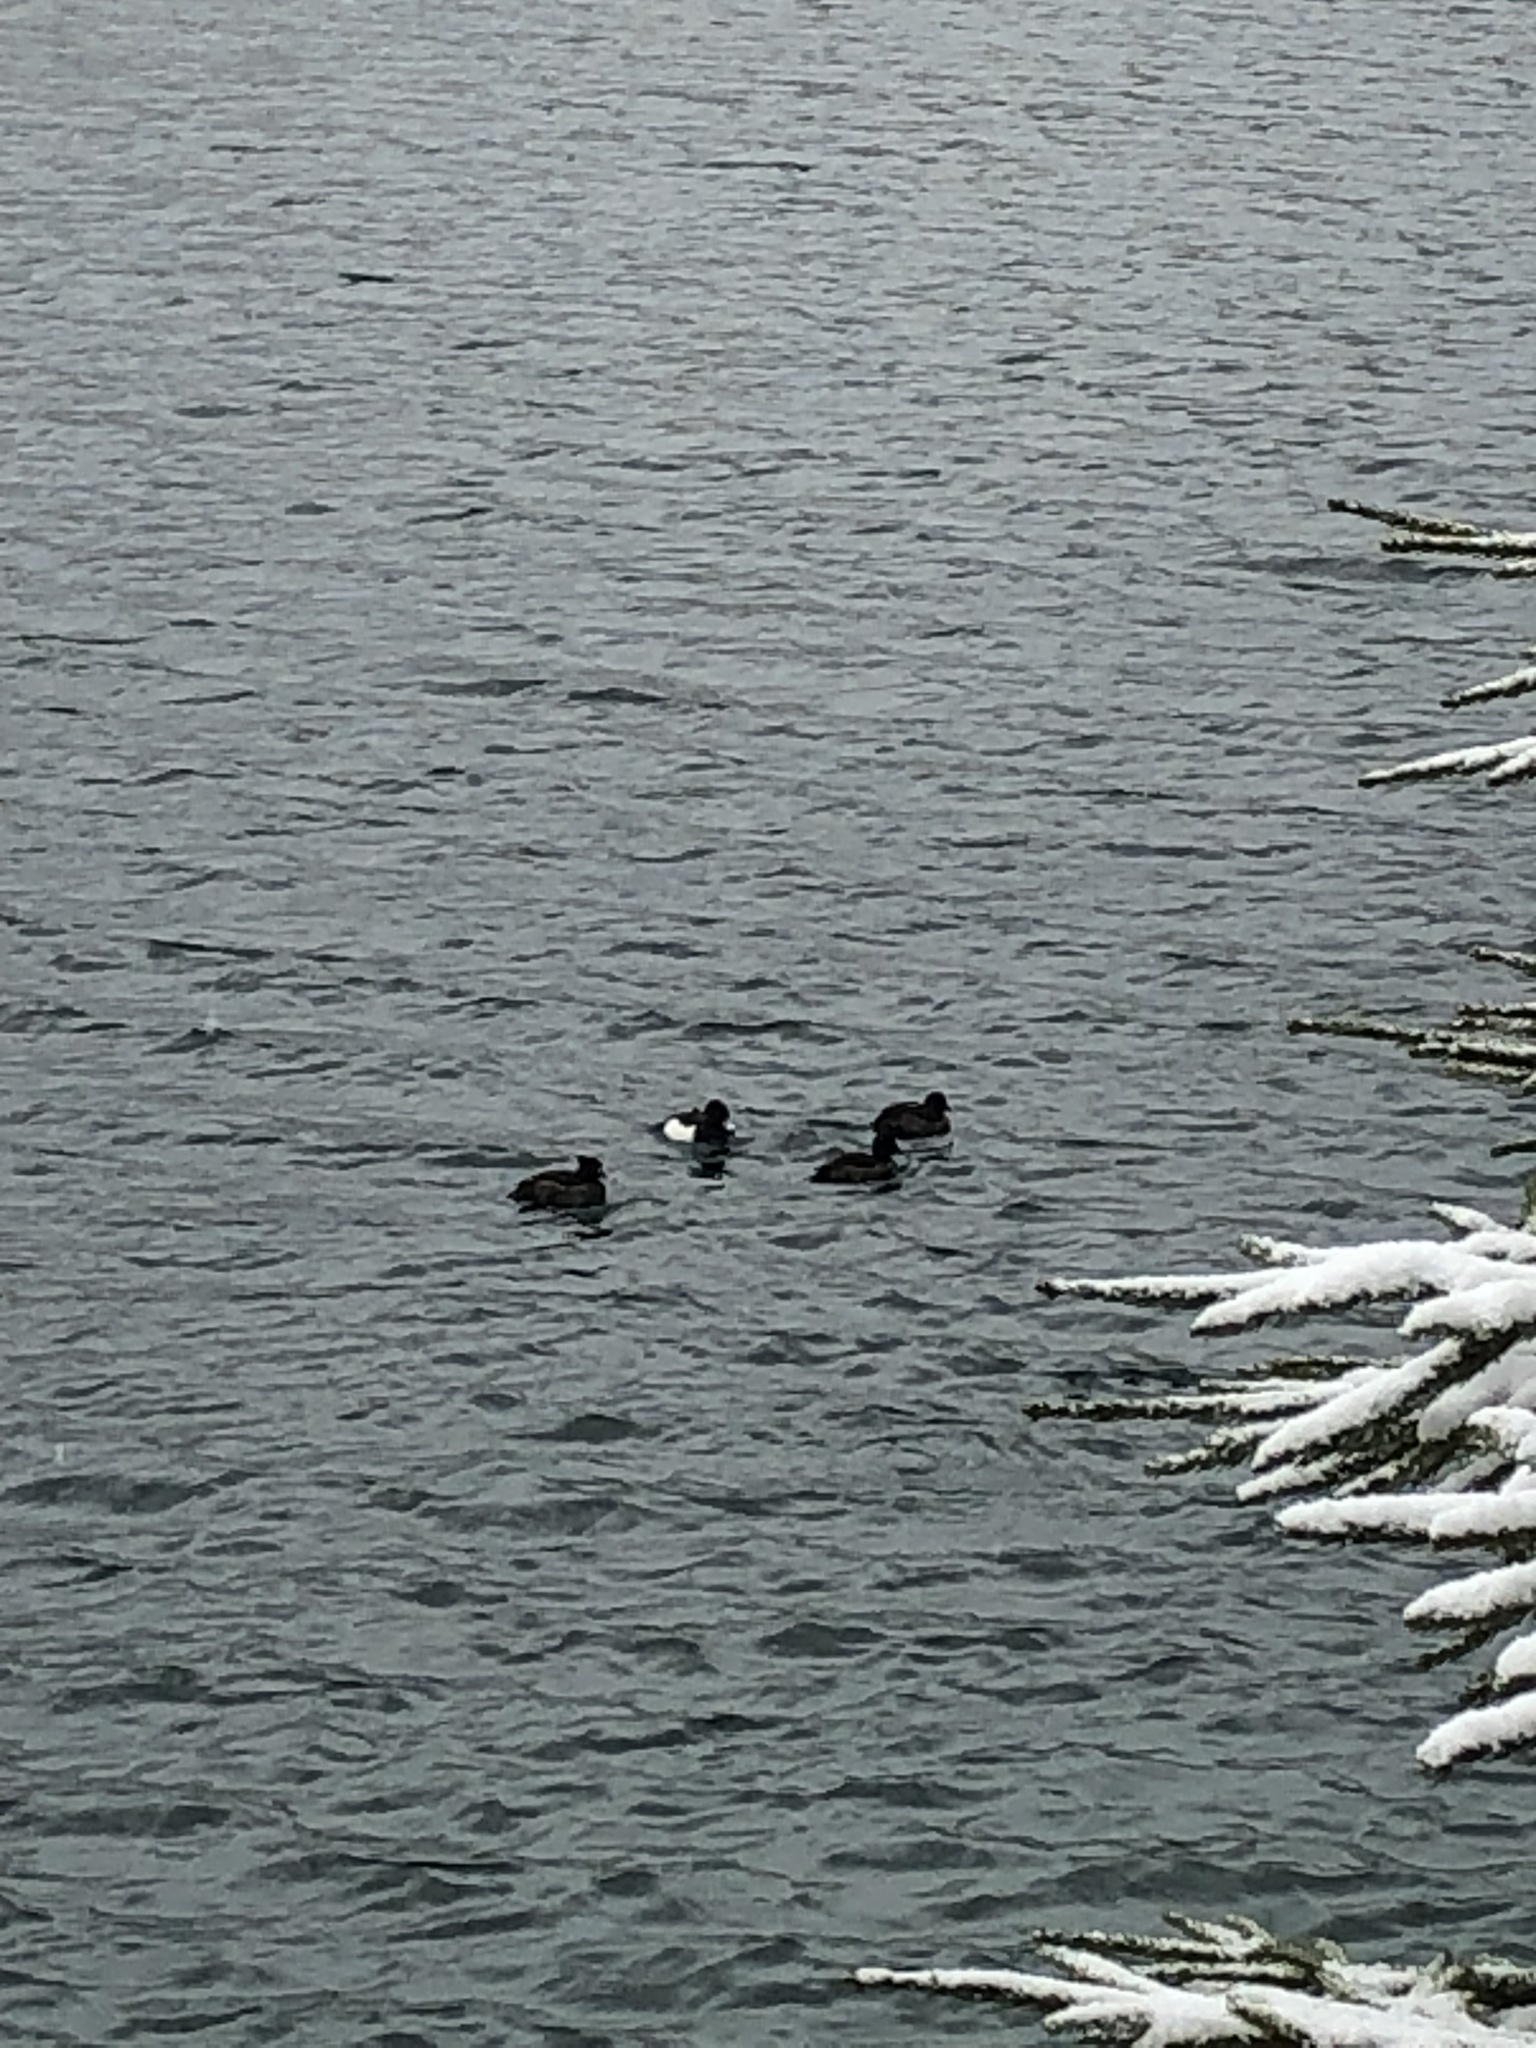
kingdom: Animalia
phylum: Chordata
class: Aves
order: Anseriformes
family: Anatidae
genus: Aythya
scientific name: Aythya fuligula
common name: Tufted duck
